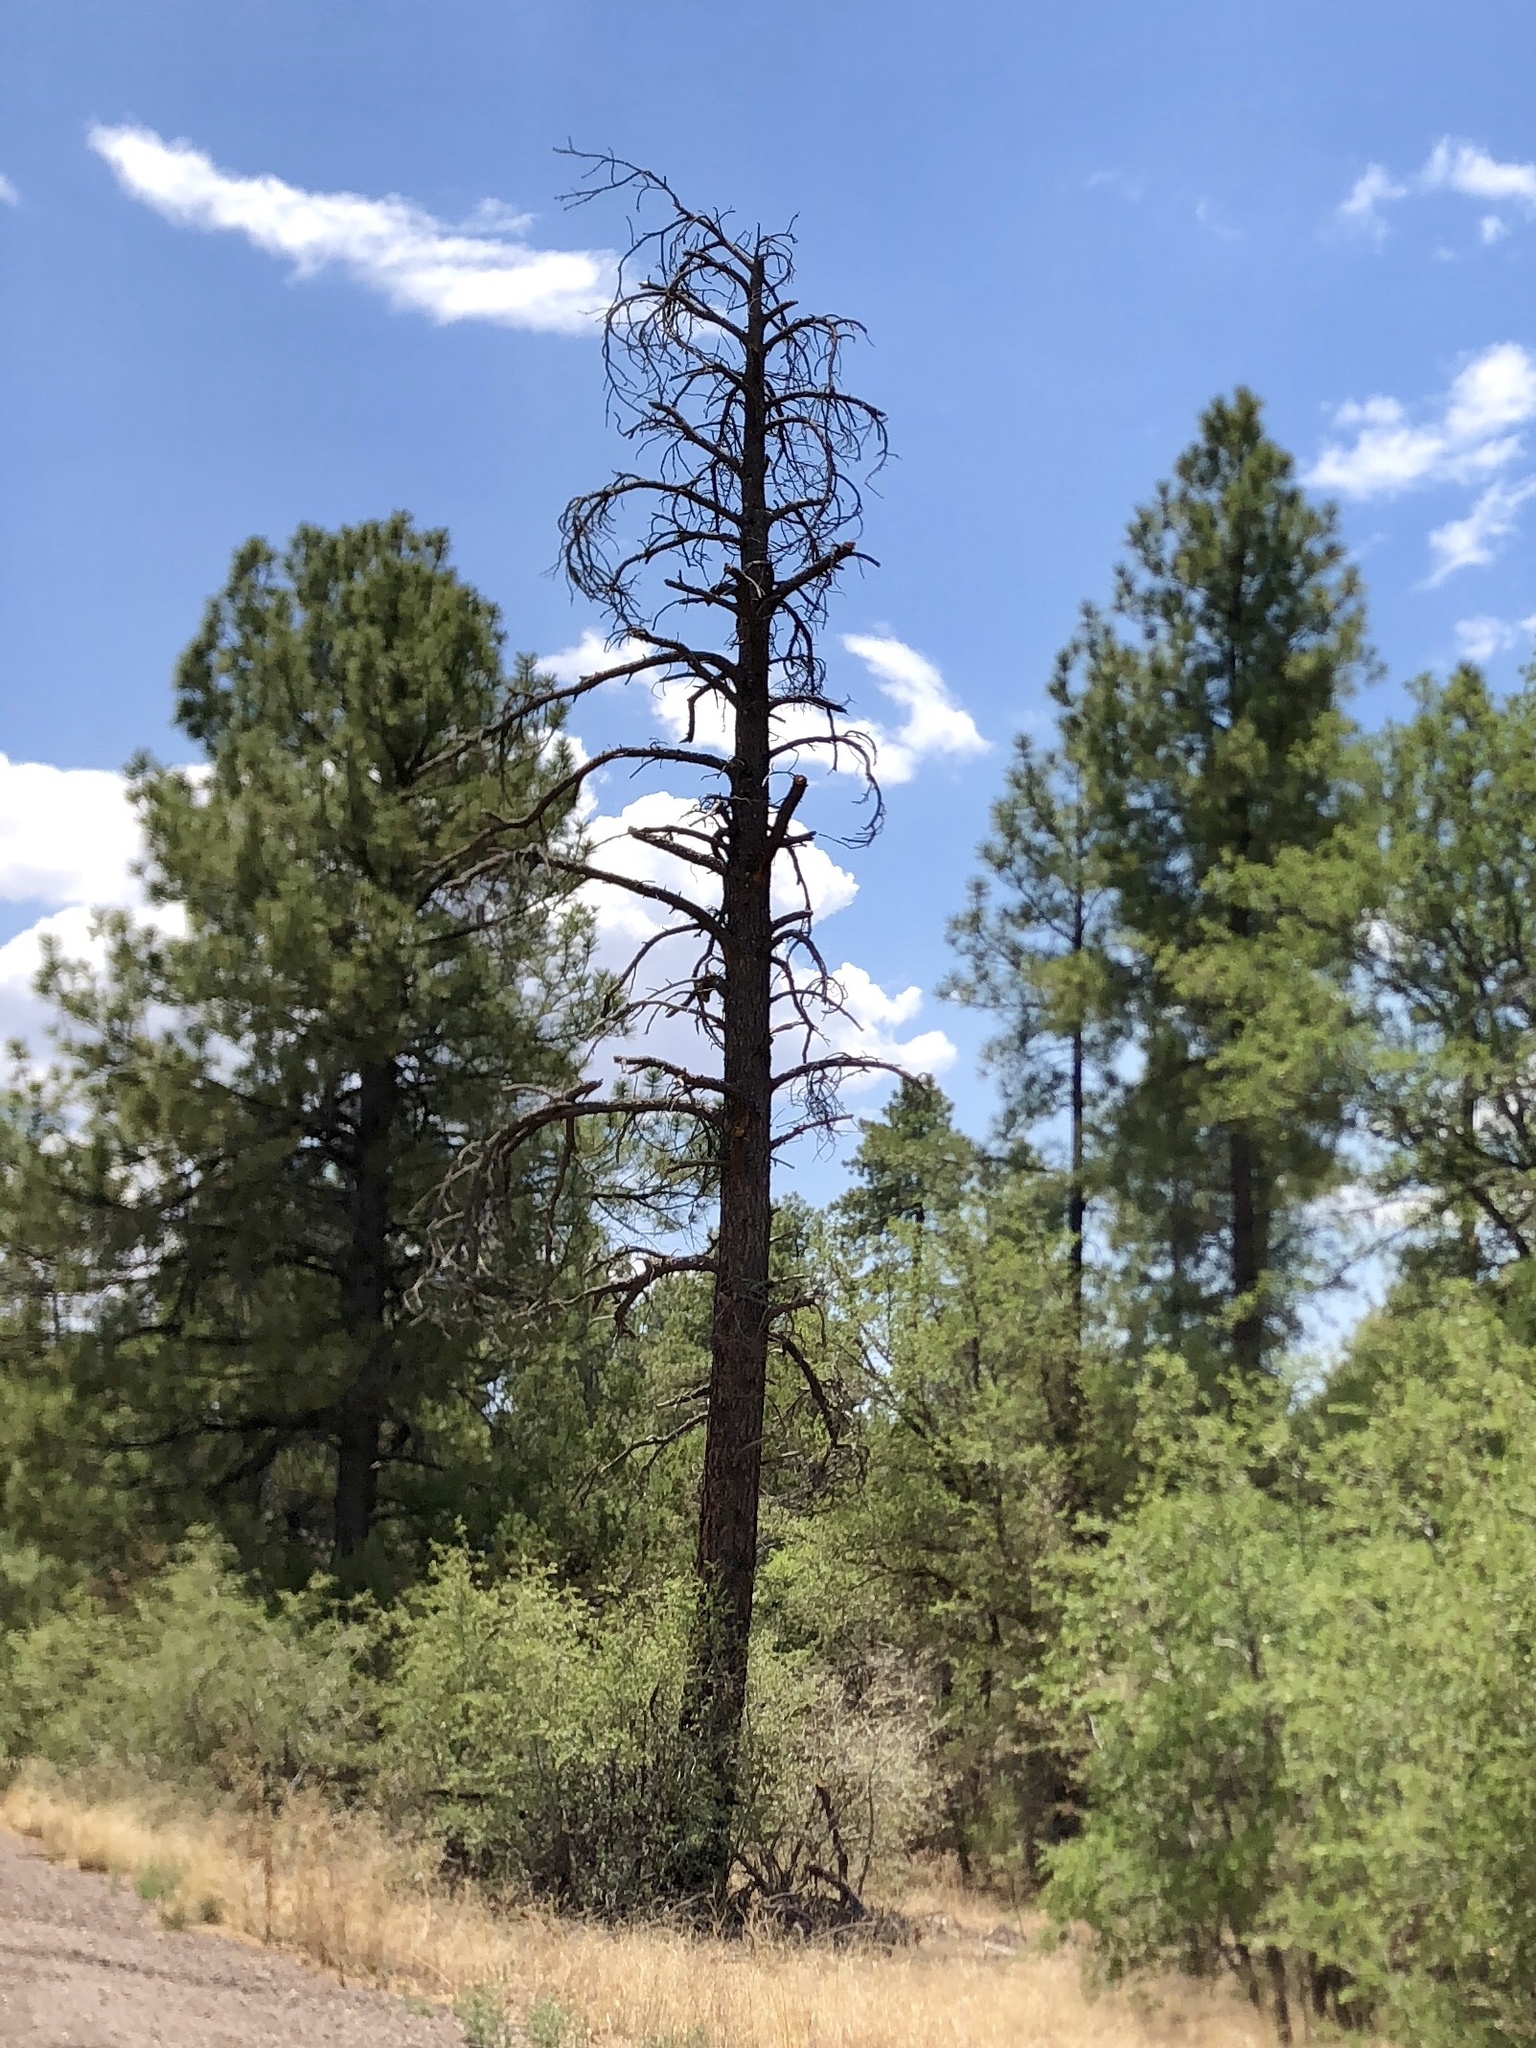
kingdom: Plantae
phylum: Tracheophyta
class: Pinopsida
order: Pinales
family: Pinaceae
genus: Pinus
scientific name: Pinus ponderosa
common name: Western yellow-pine
